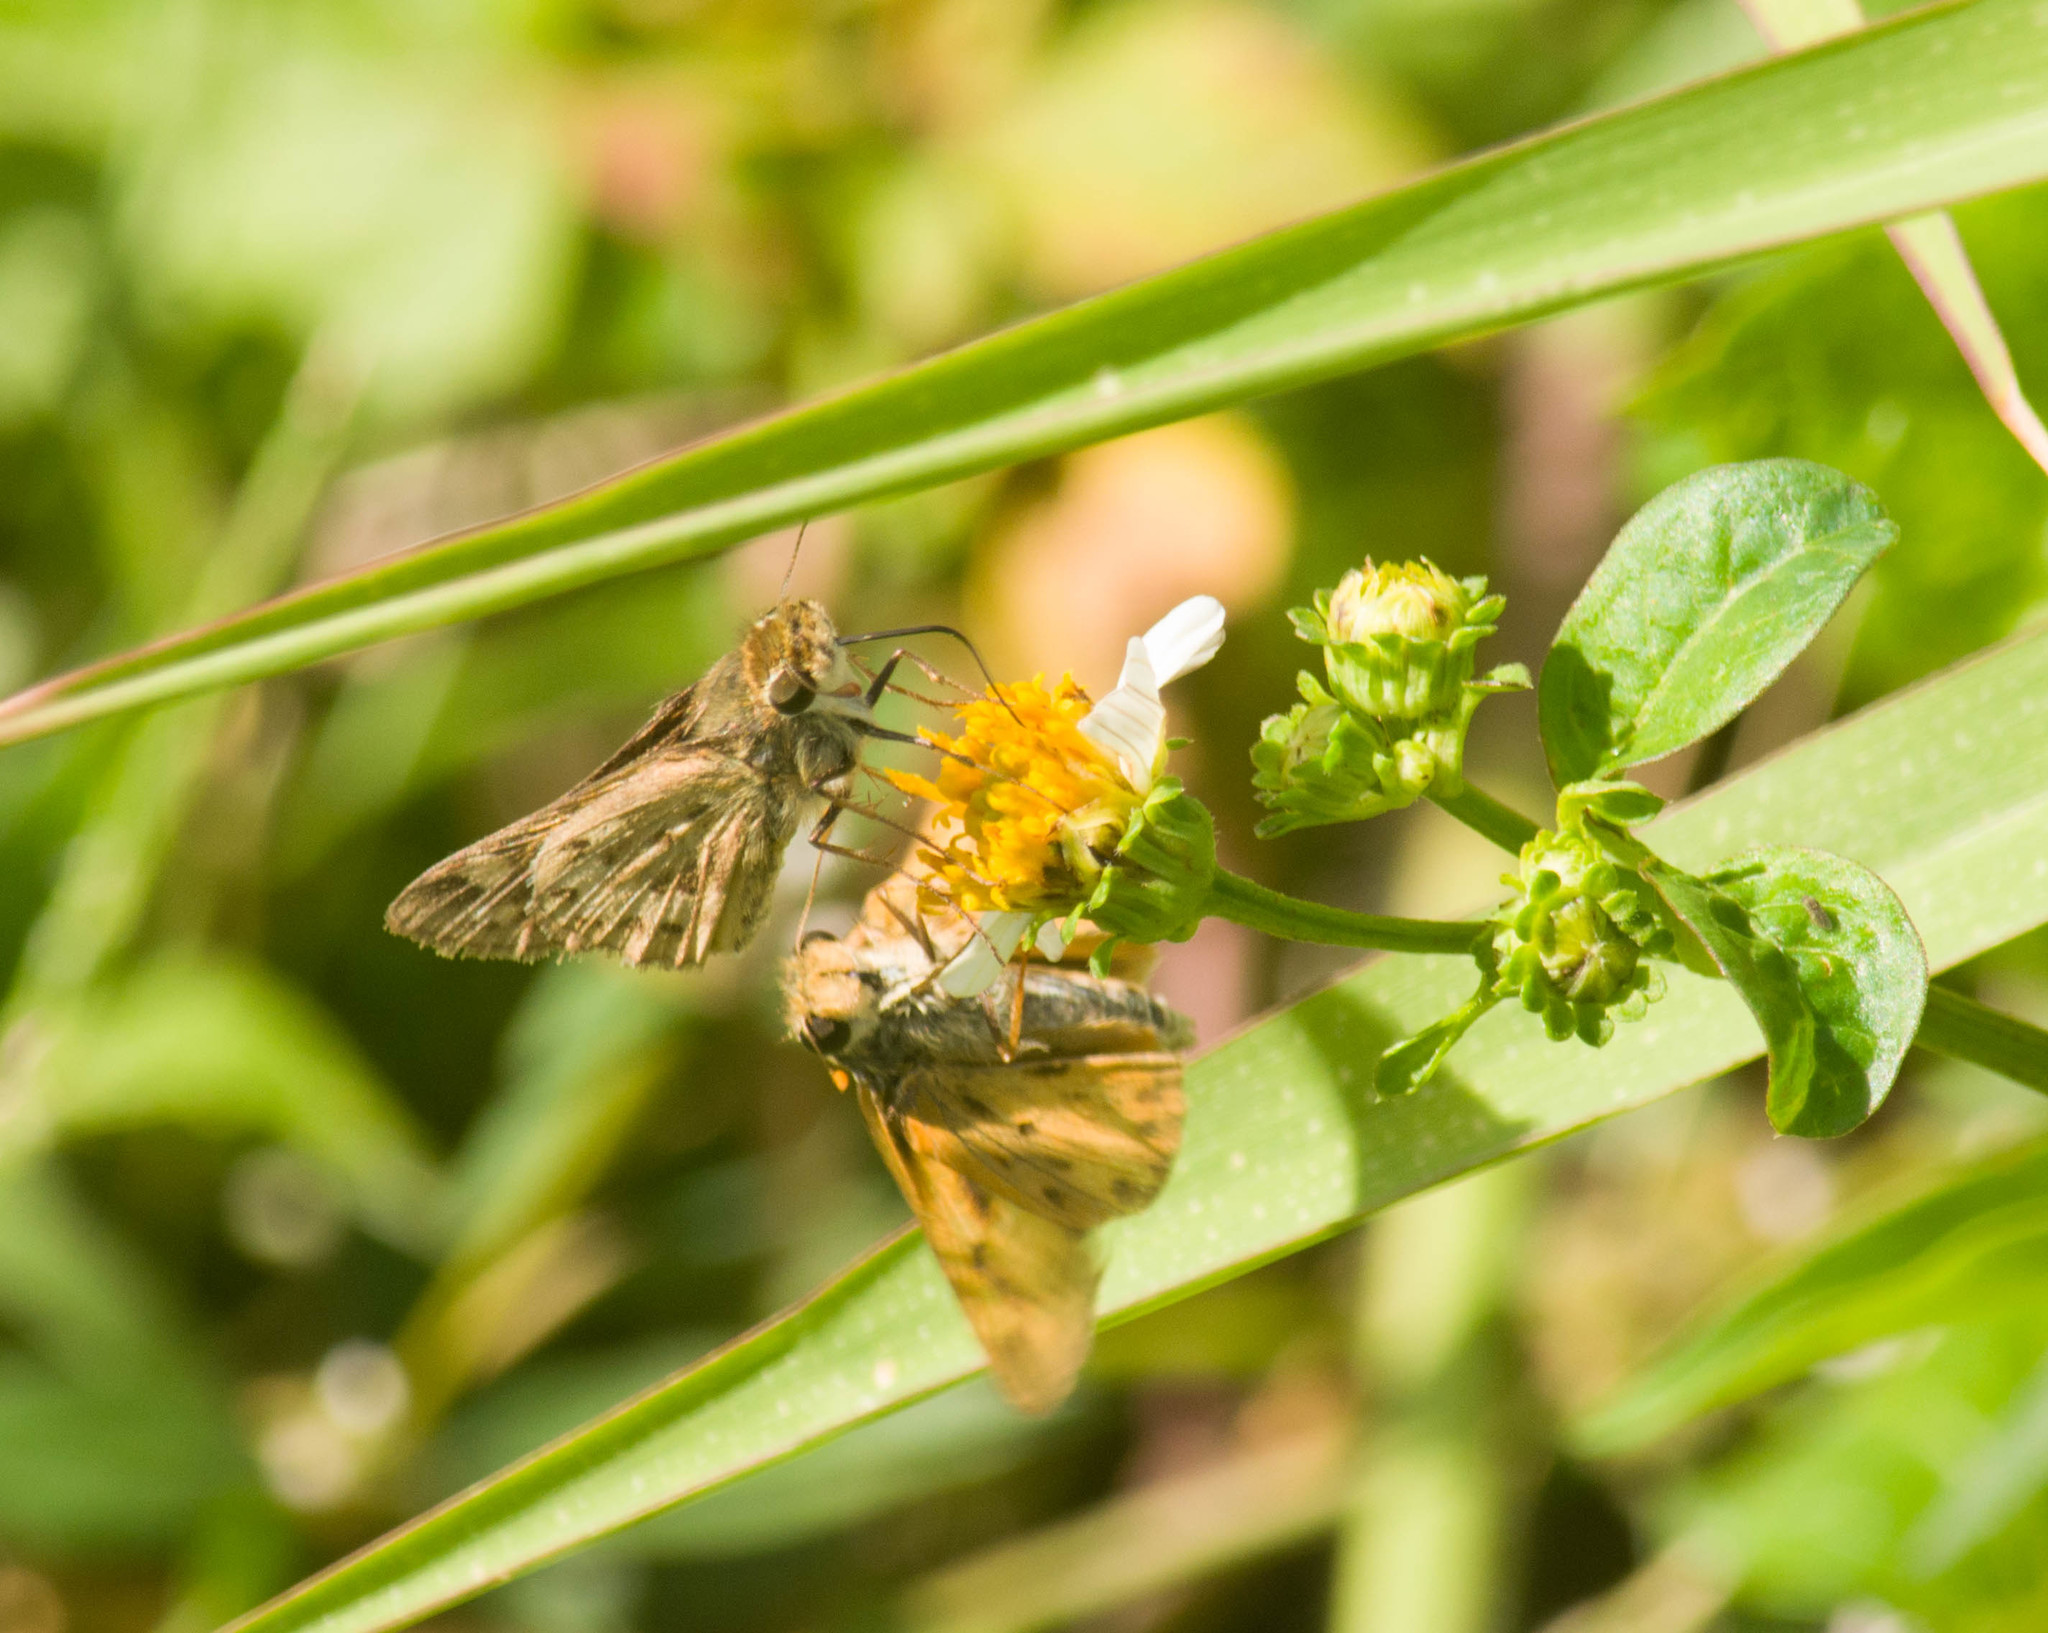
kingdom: Animalia
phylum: Arthropoda
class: Insecta
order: Lepidoptera
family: Hesperiidae
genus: Hylephila
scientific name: Hylephila phyleus
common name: Fiery skipper
